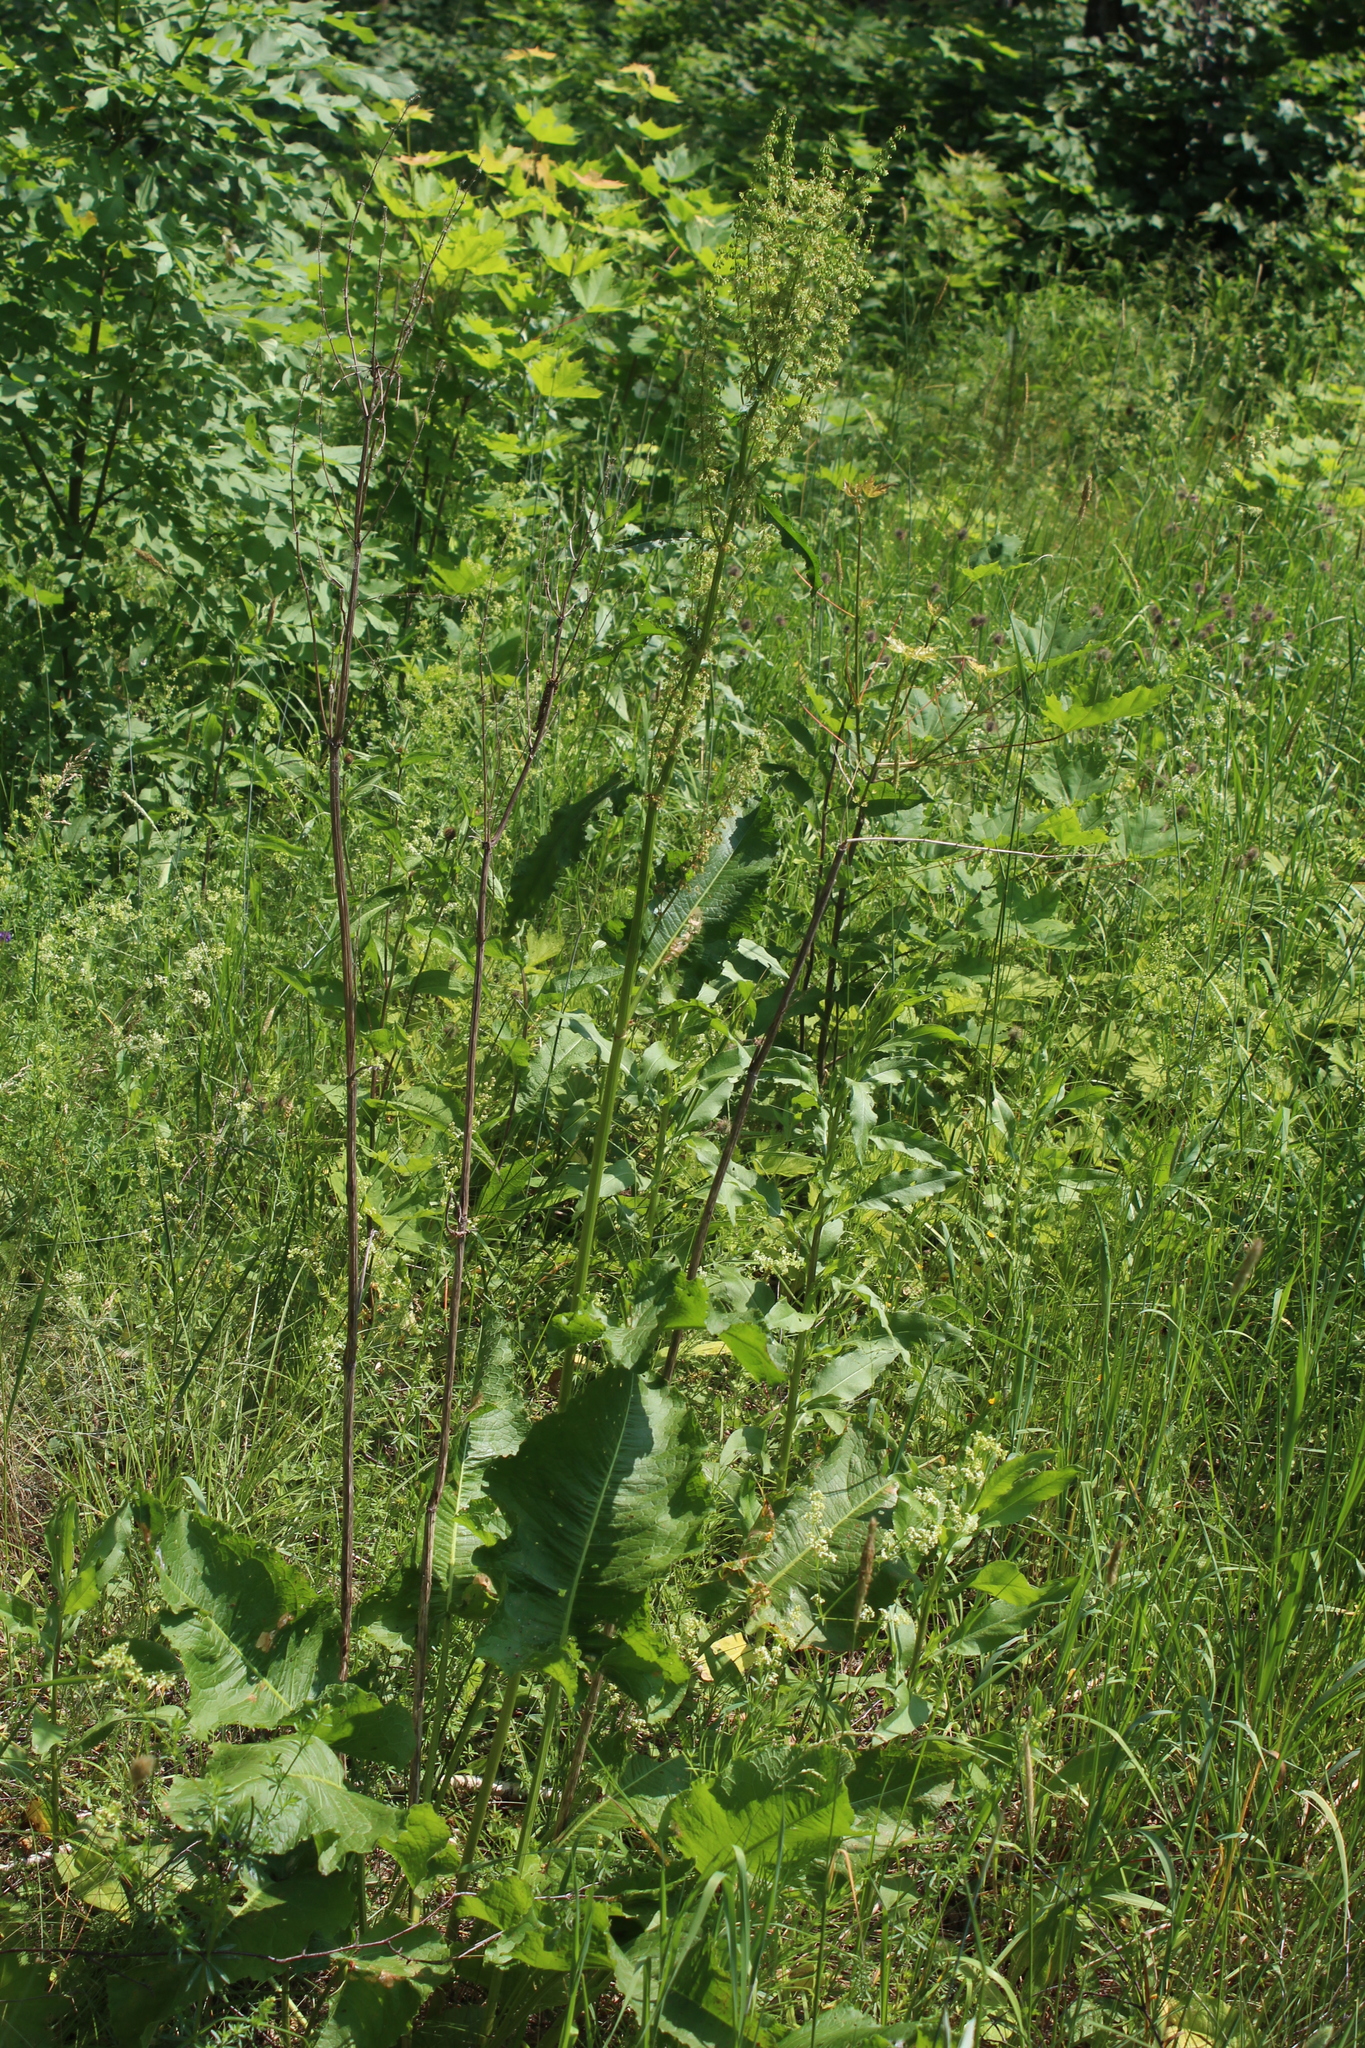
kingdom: Plantae
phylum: Tracheophyta
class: Magnoliopsida
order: Caryophyllales
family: Polygonaceae
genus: Rumex
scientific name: Rumex confertus
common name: Russian dock
